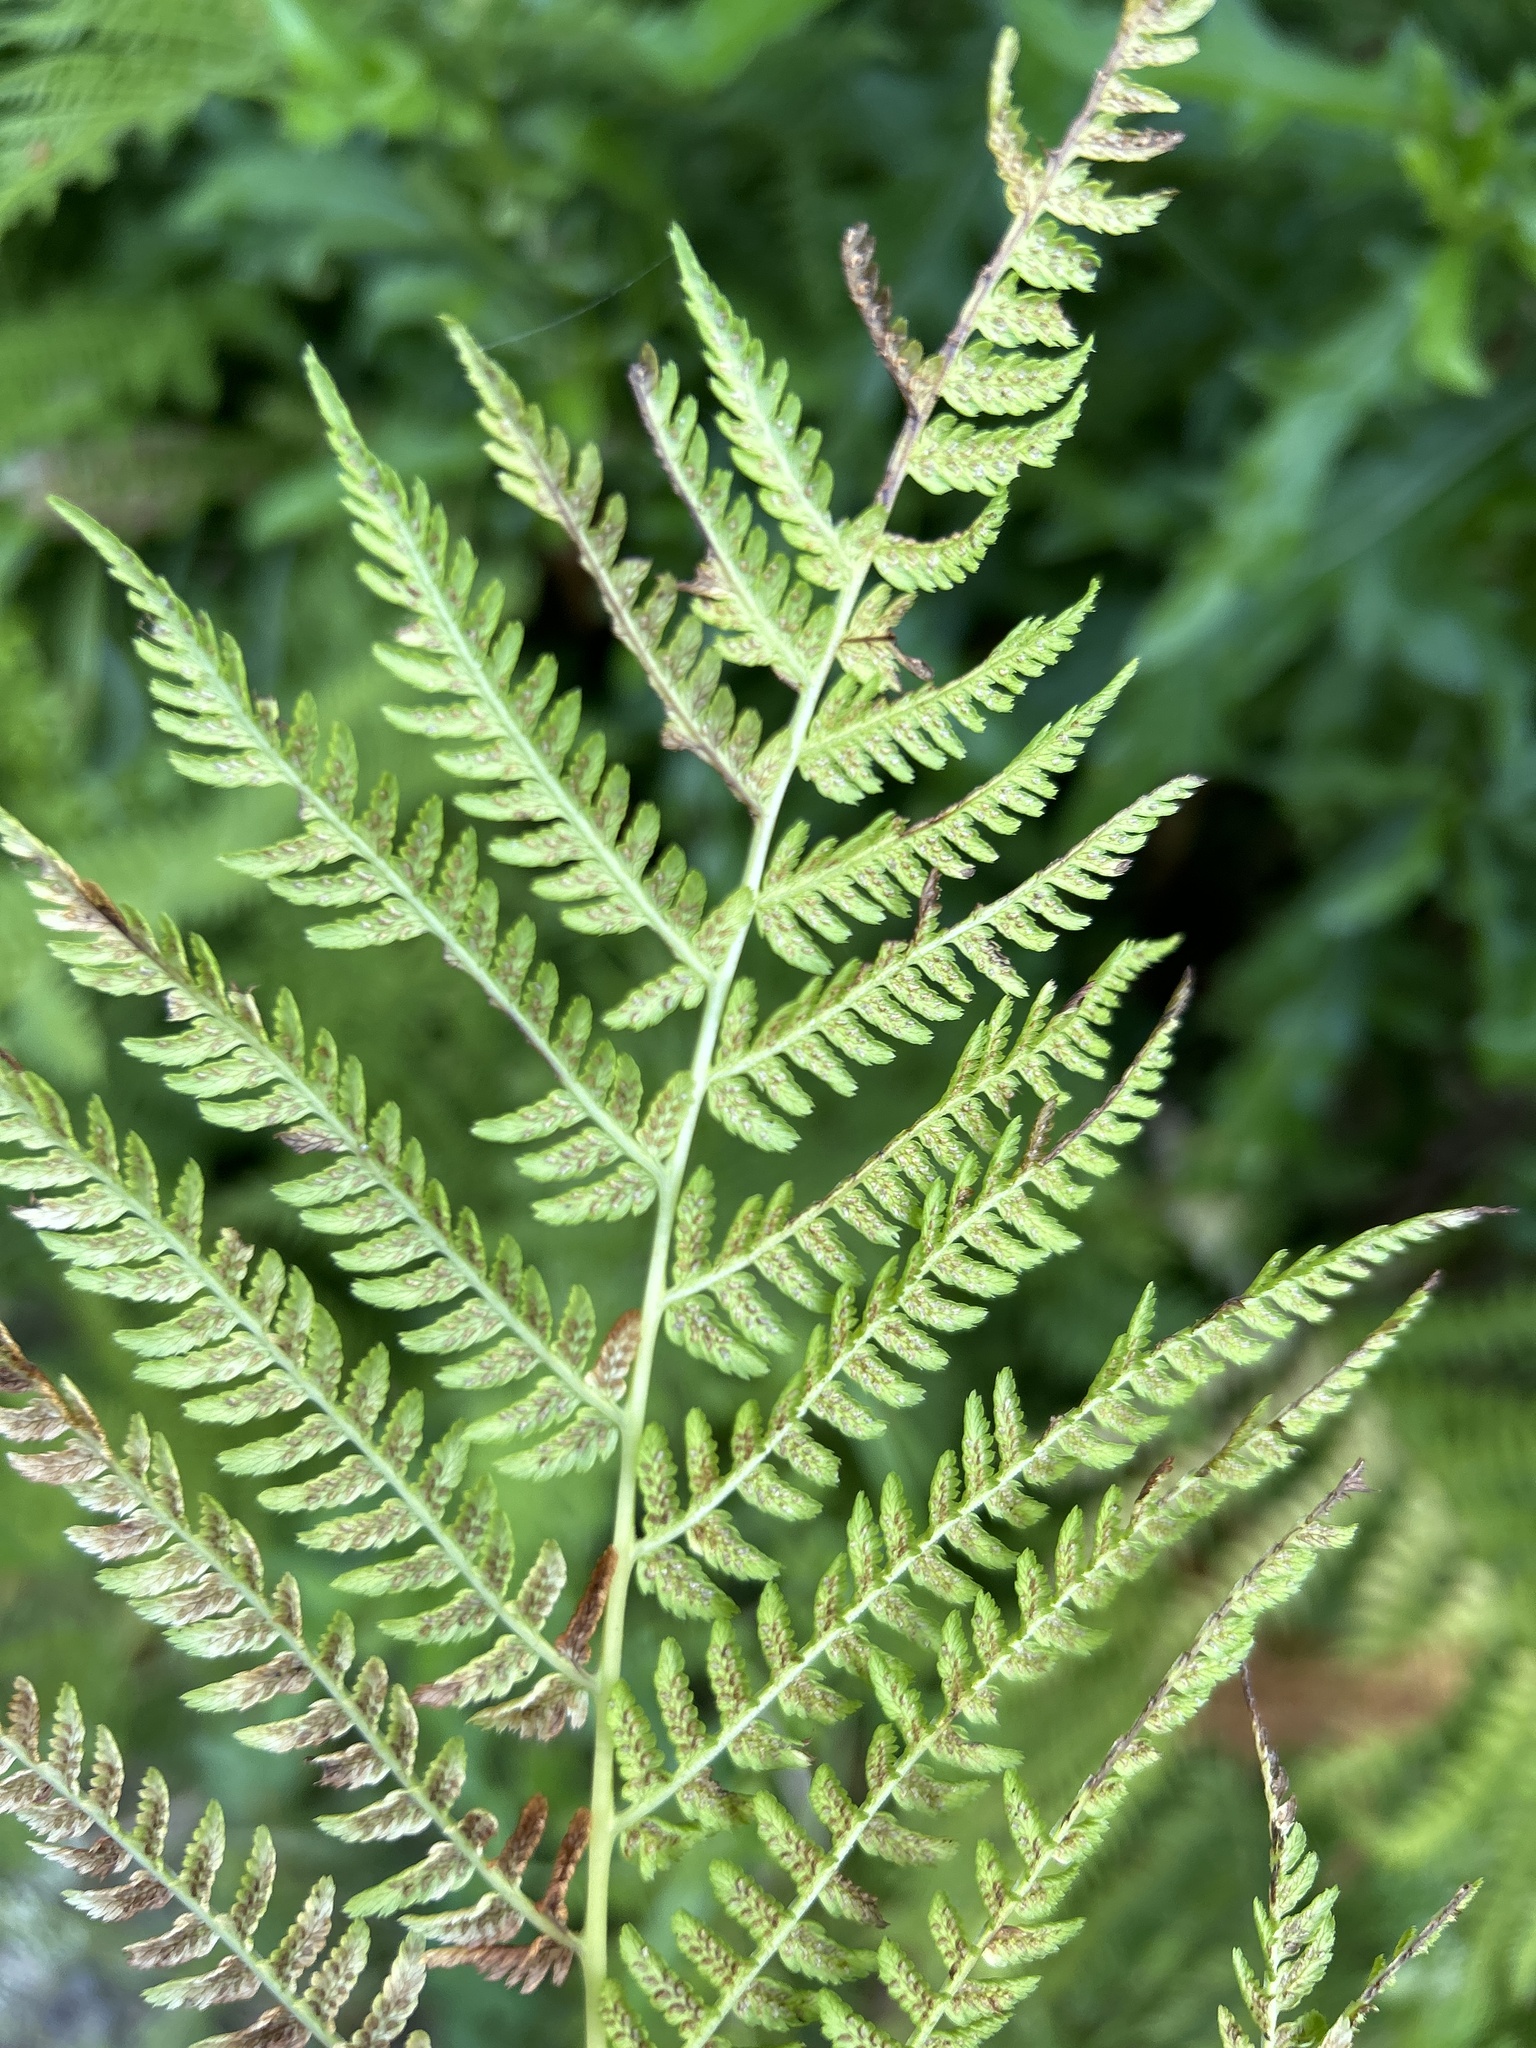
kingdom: Plantae
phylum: Tracheophyta
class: Polypodiopsida
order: Polypodiales
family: Athyriaceae
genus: Athyrium
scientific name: Athyrium angustum
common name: Northern lady fern
